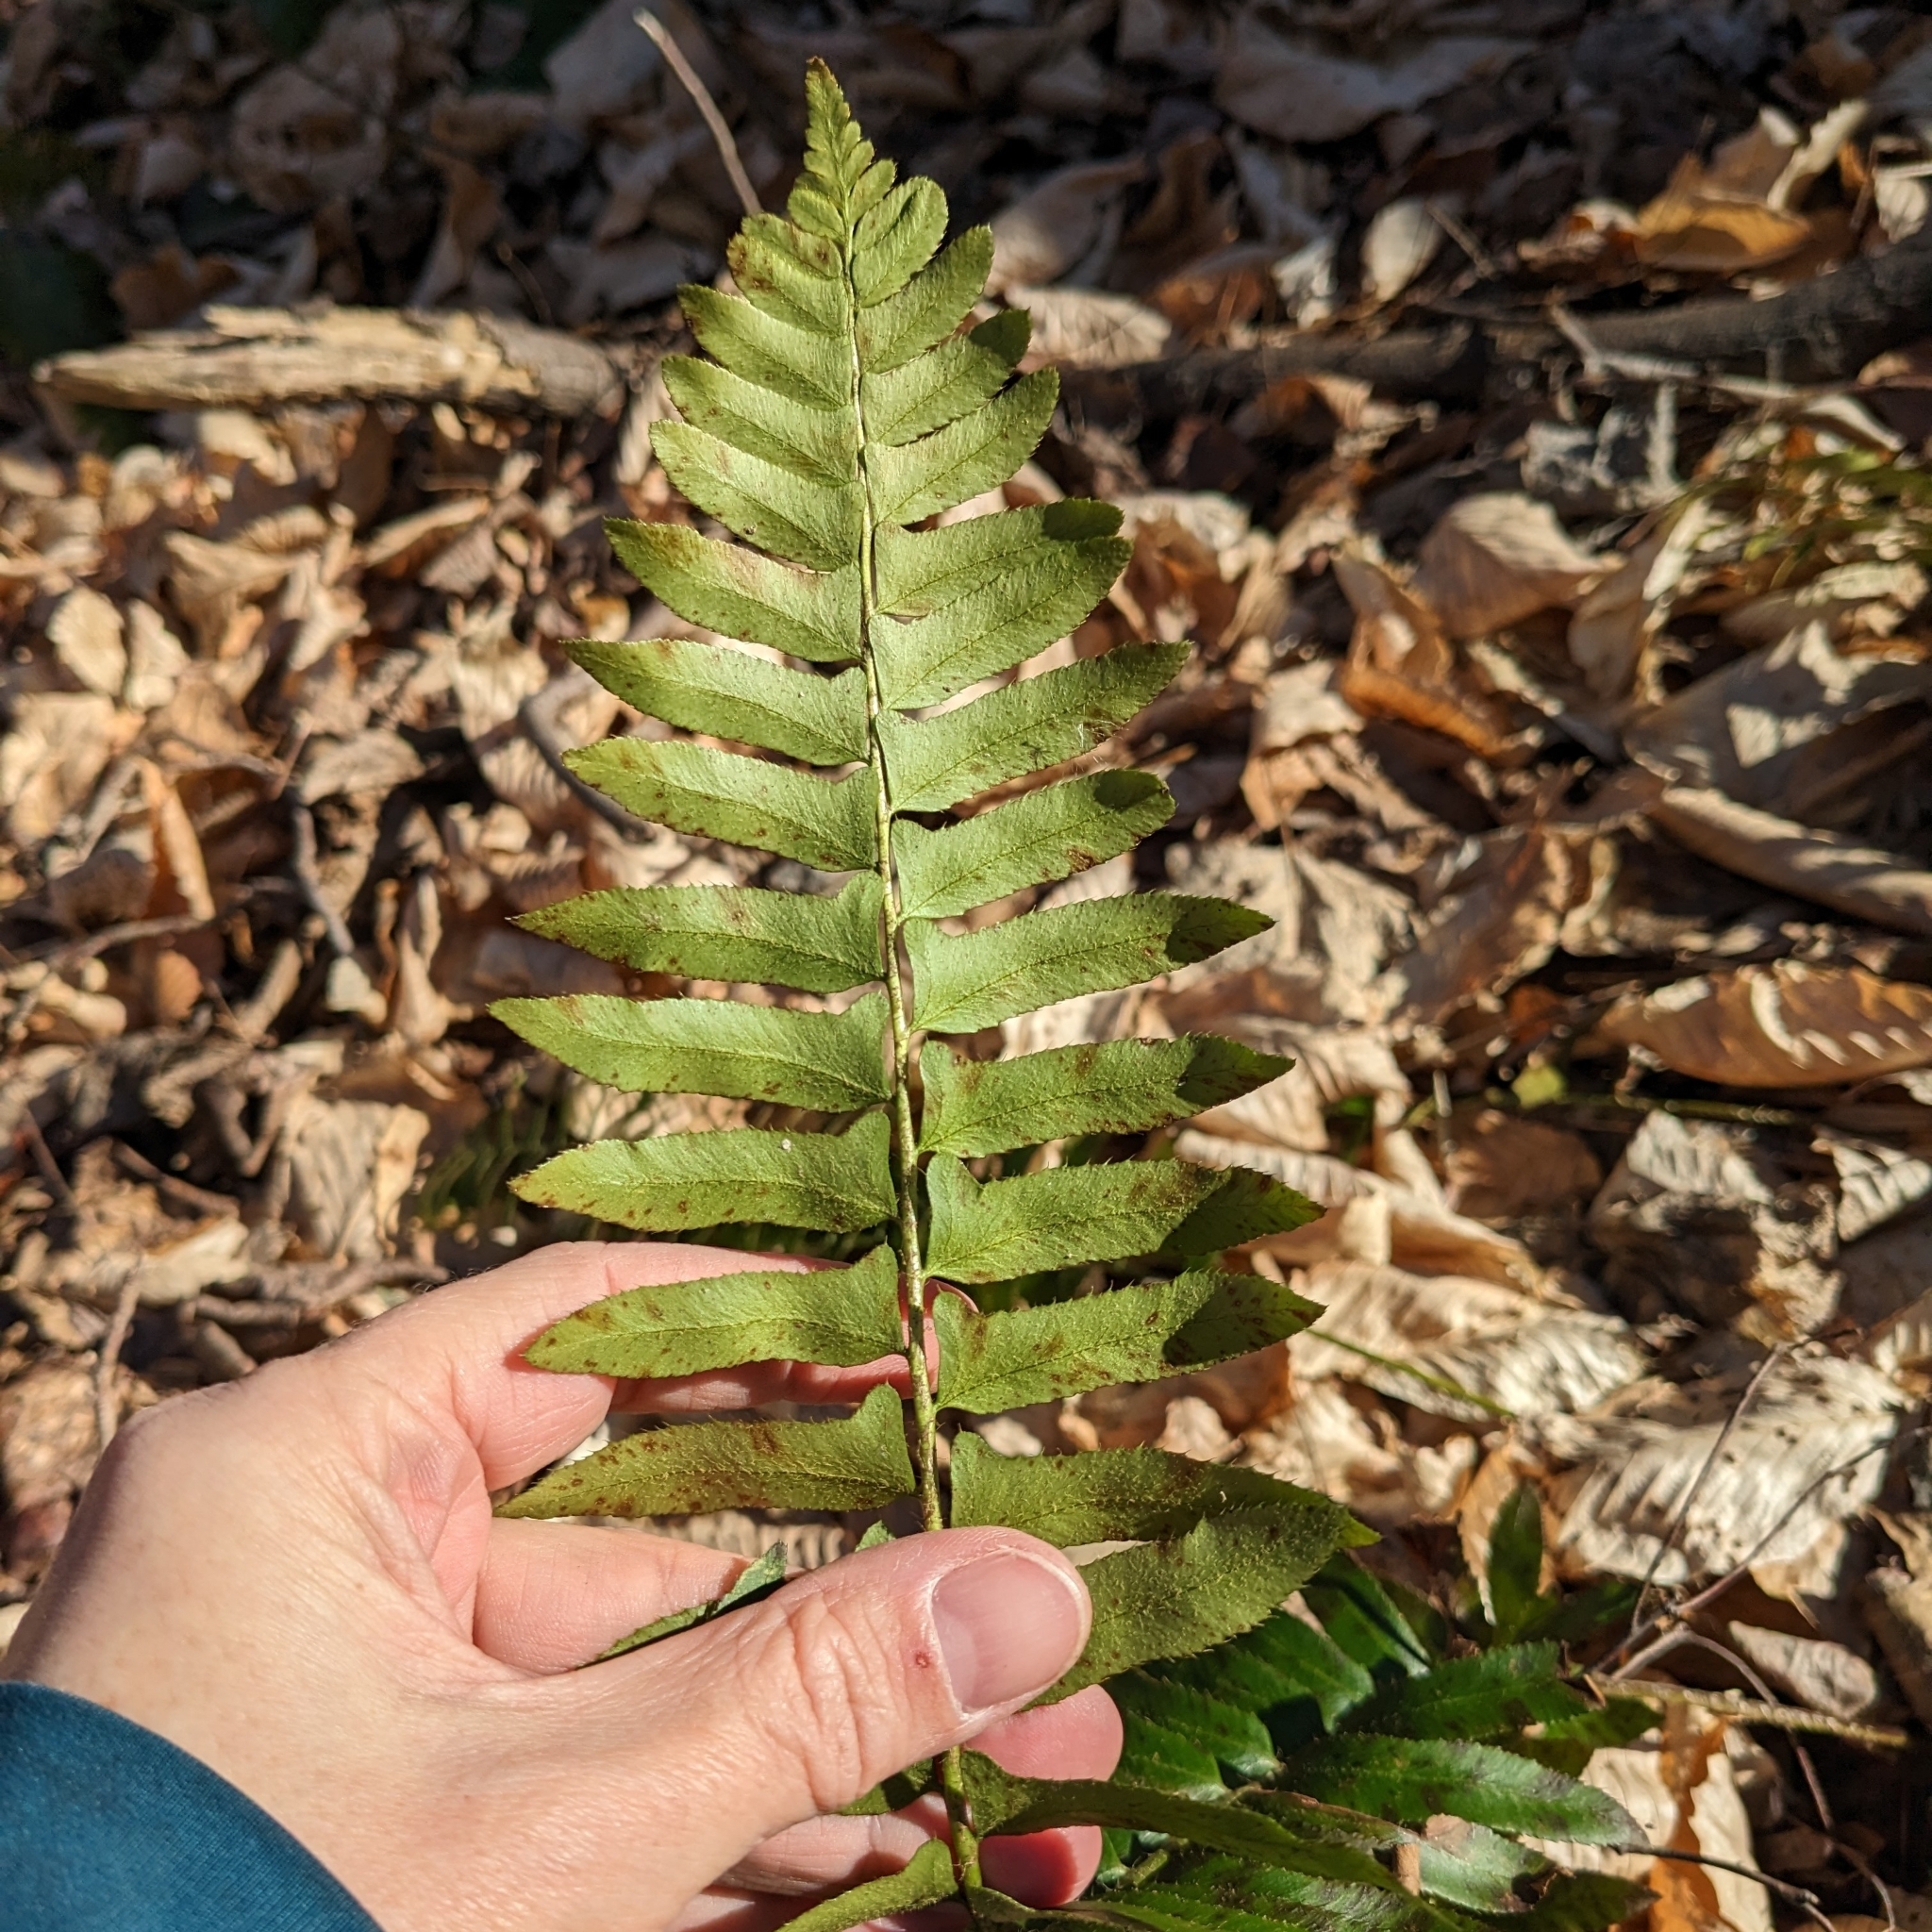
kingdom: Plantae
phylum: Tracheophyta
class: Polypodiopsida
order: Polypodiales
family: Dryopteridaceae
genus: Polystichum
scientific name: Polystichum acrostichoides
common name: Christmas fern
